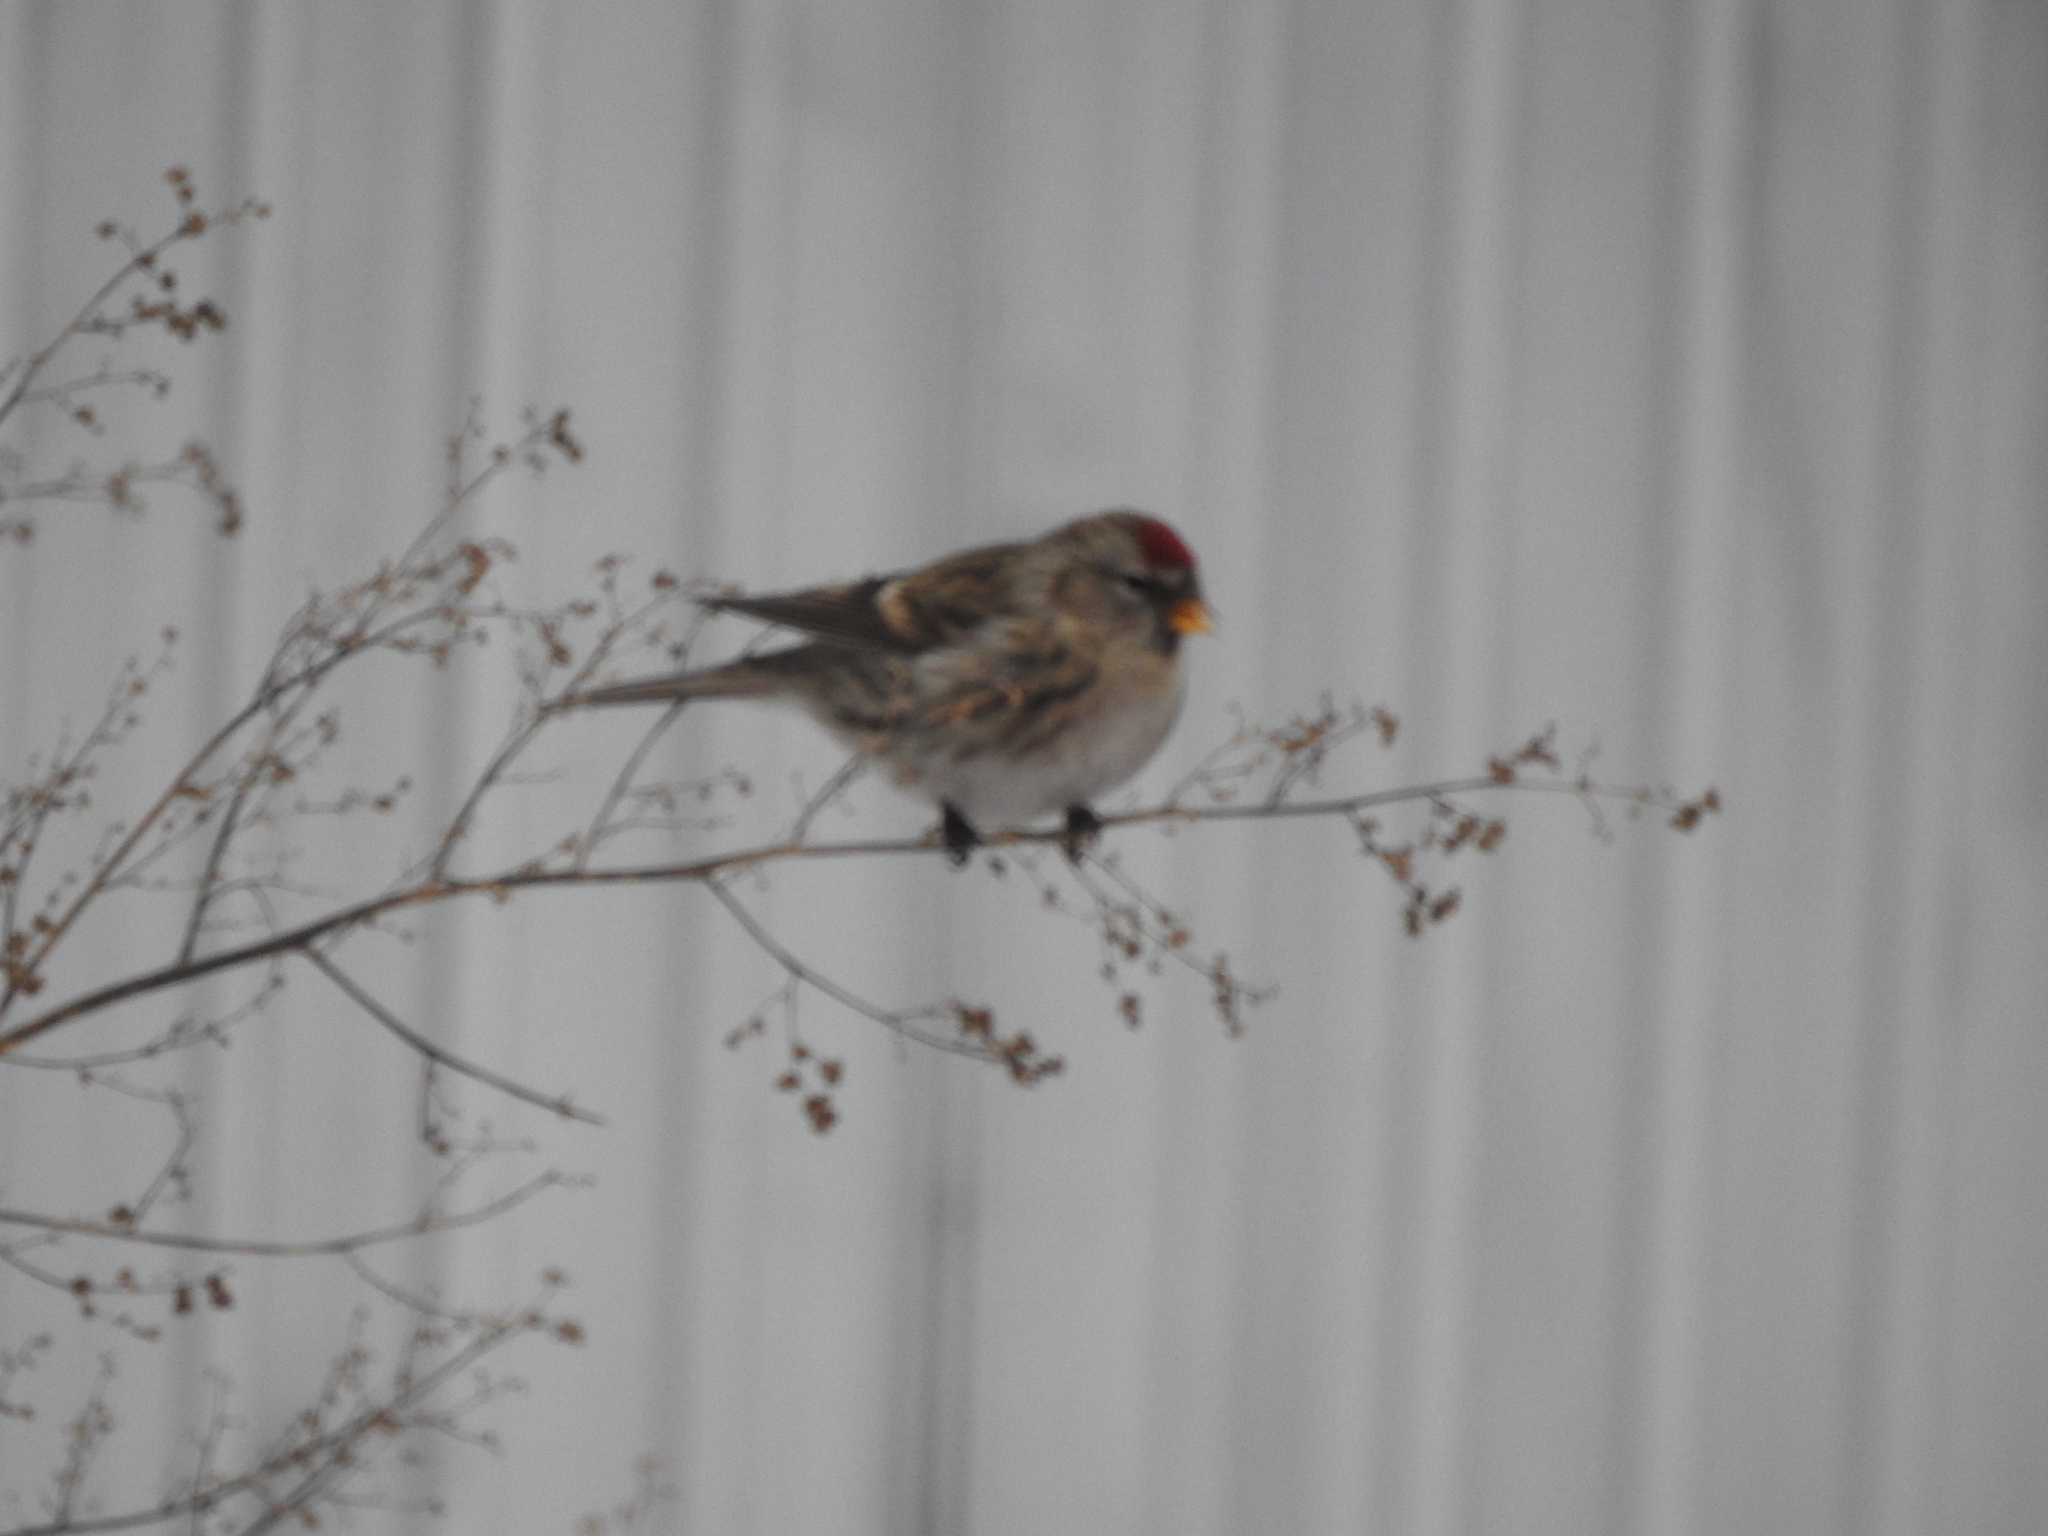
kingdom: Animalia
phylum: Chordata
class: Aves
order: Passeriformes
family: Fringillidae
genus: Acanthis
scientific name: Acanthis flammea
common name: Common redpoll
